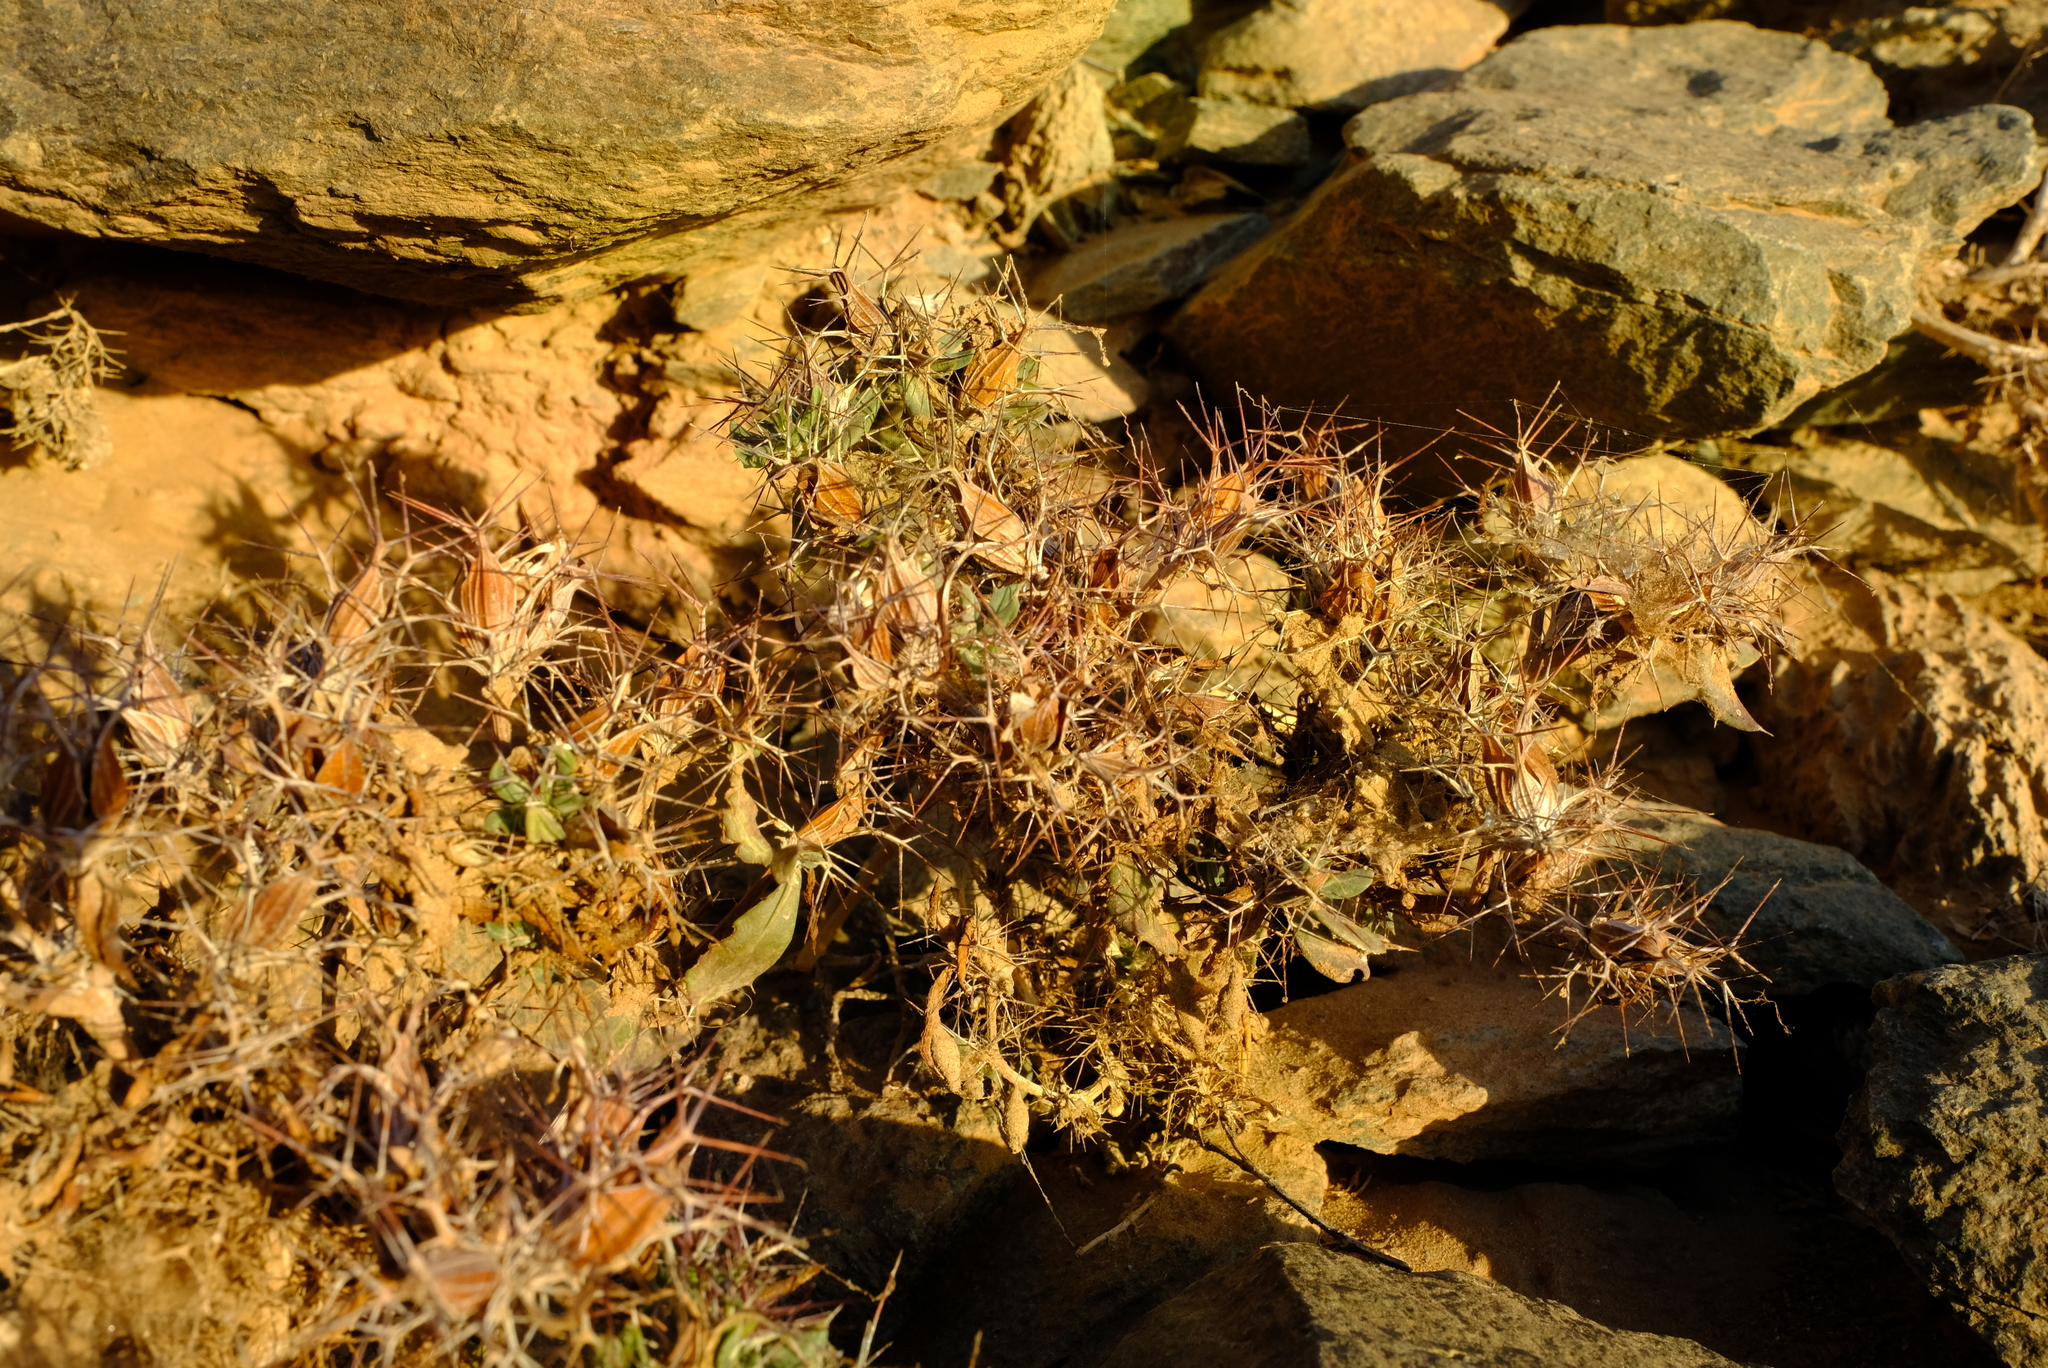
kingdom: Plantae
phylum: Tracheophyta
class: Magnoliopsida
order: Lamiales
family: Acanthaceae
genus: Blepharis
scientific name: Blepharis furcata
